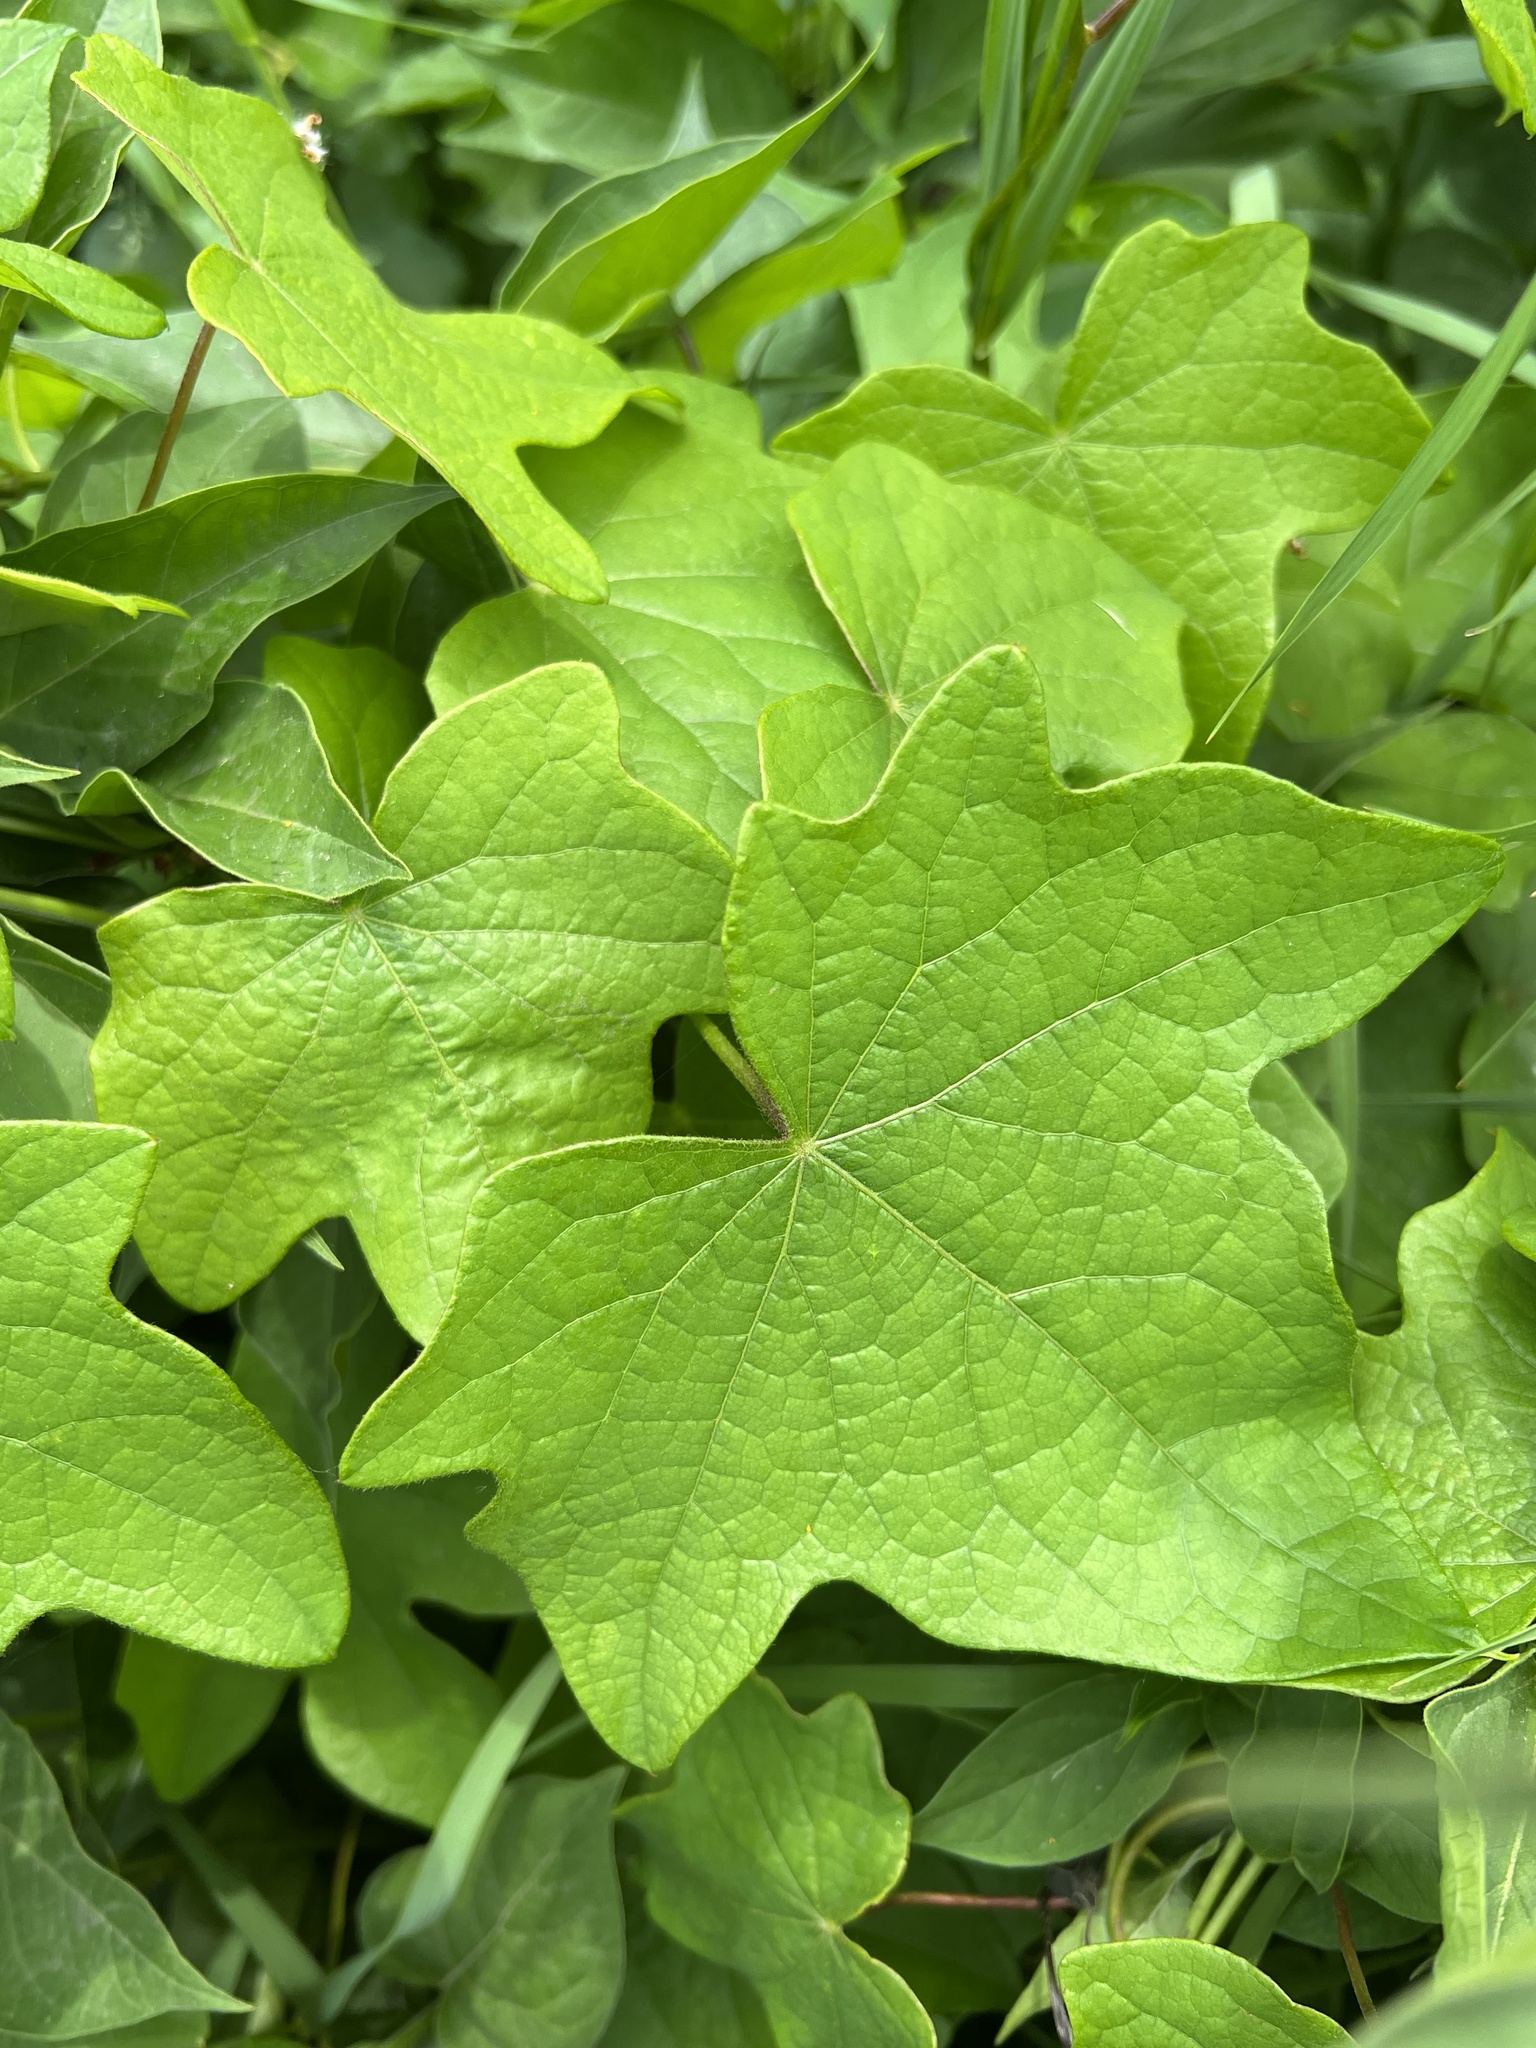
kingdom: Plantae
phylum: Tracheophyta
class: Magnoliopsida
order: Ranunculales
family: Menispermaceae
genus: Menispermum
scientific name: Menispermum canadense
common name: Moonseed
